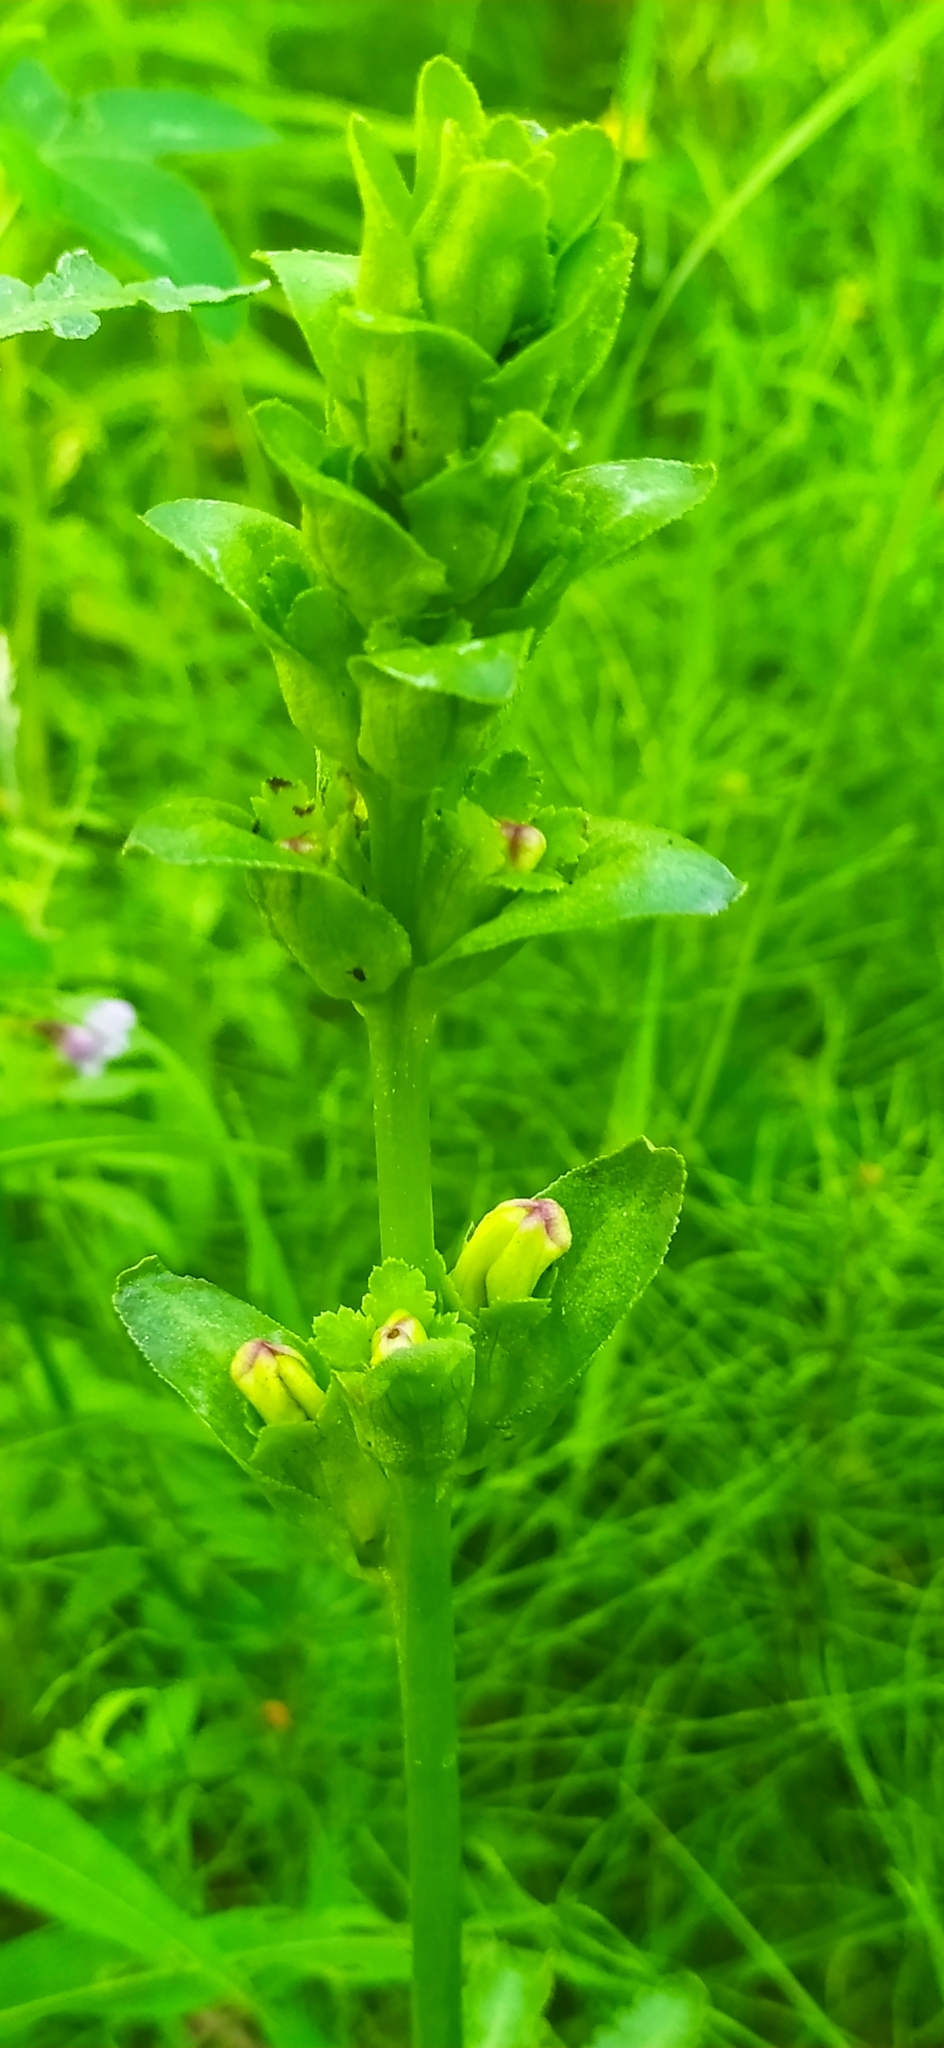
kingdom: Plantae
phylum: Tracheophyta
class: Magnoliopsida
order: Lamiales
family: Orobanchaceae
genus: Pedicularis
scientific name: Pedicularis sceptrum-carolinum
